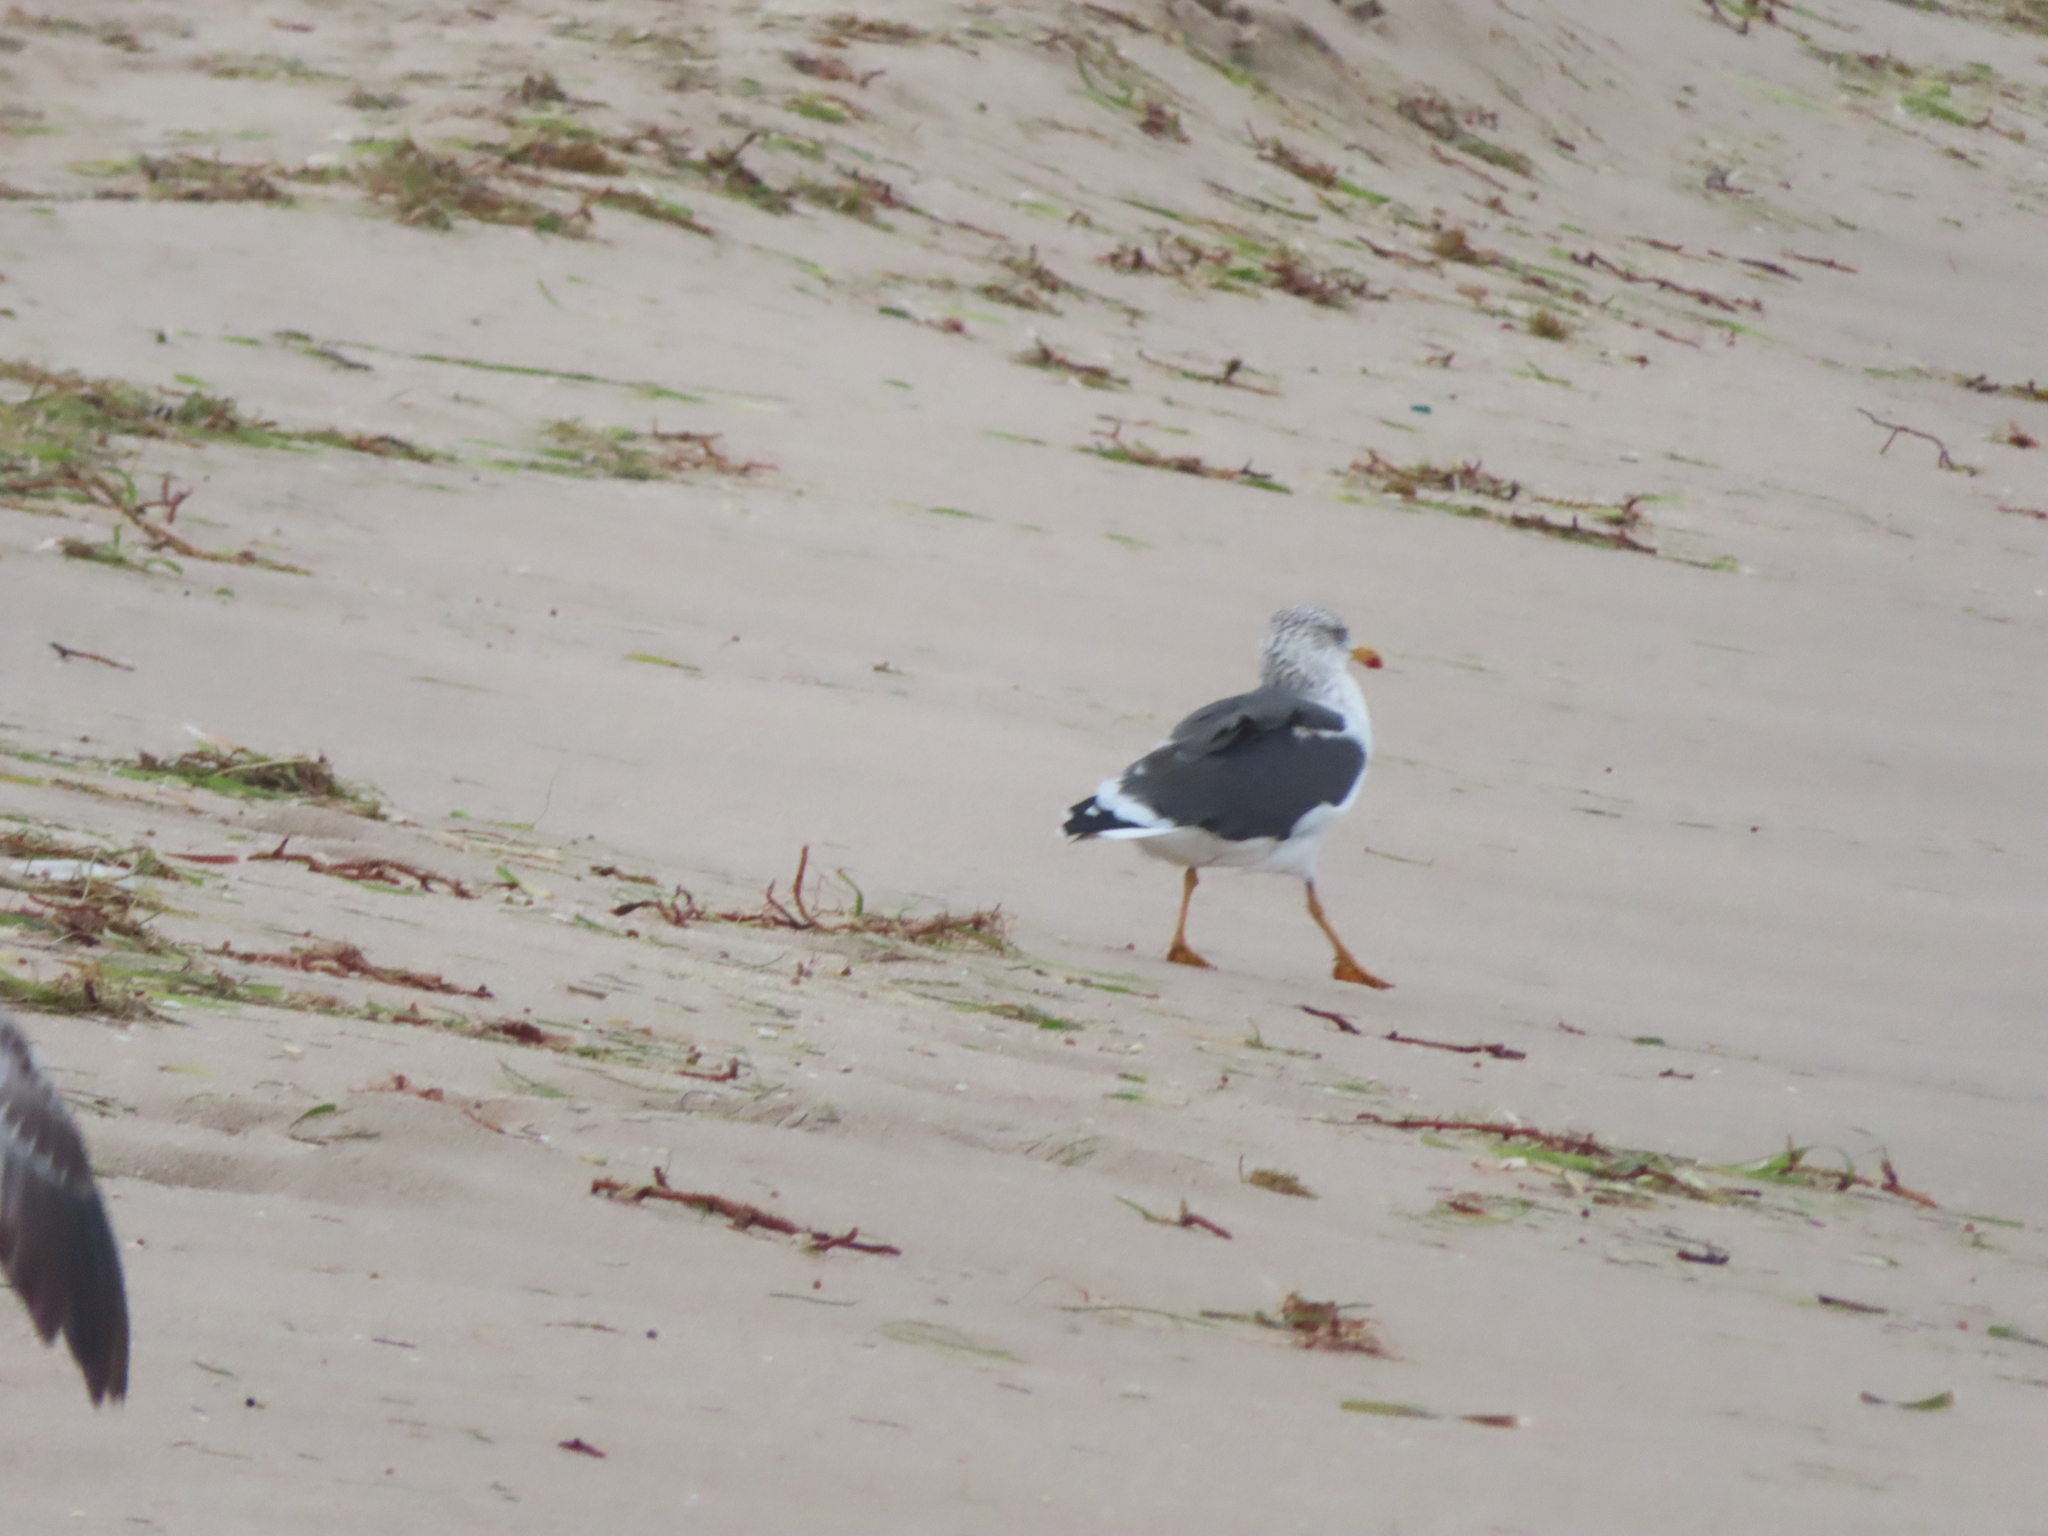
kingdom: Animalia
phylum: Chordata
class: Aves
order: Charadriiformes
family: Laridae
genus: Larus
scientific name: Larus fuscus
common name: Lesser black-backed gull
